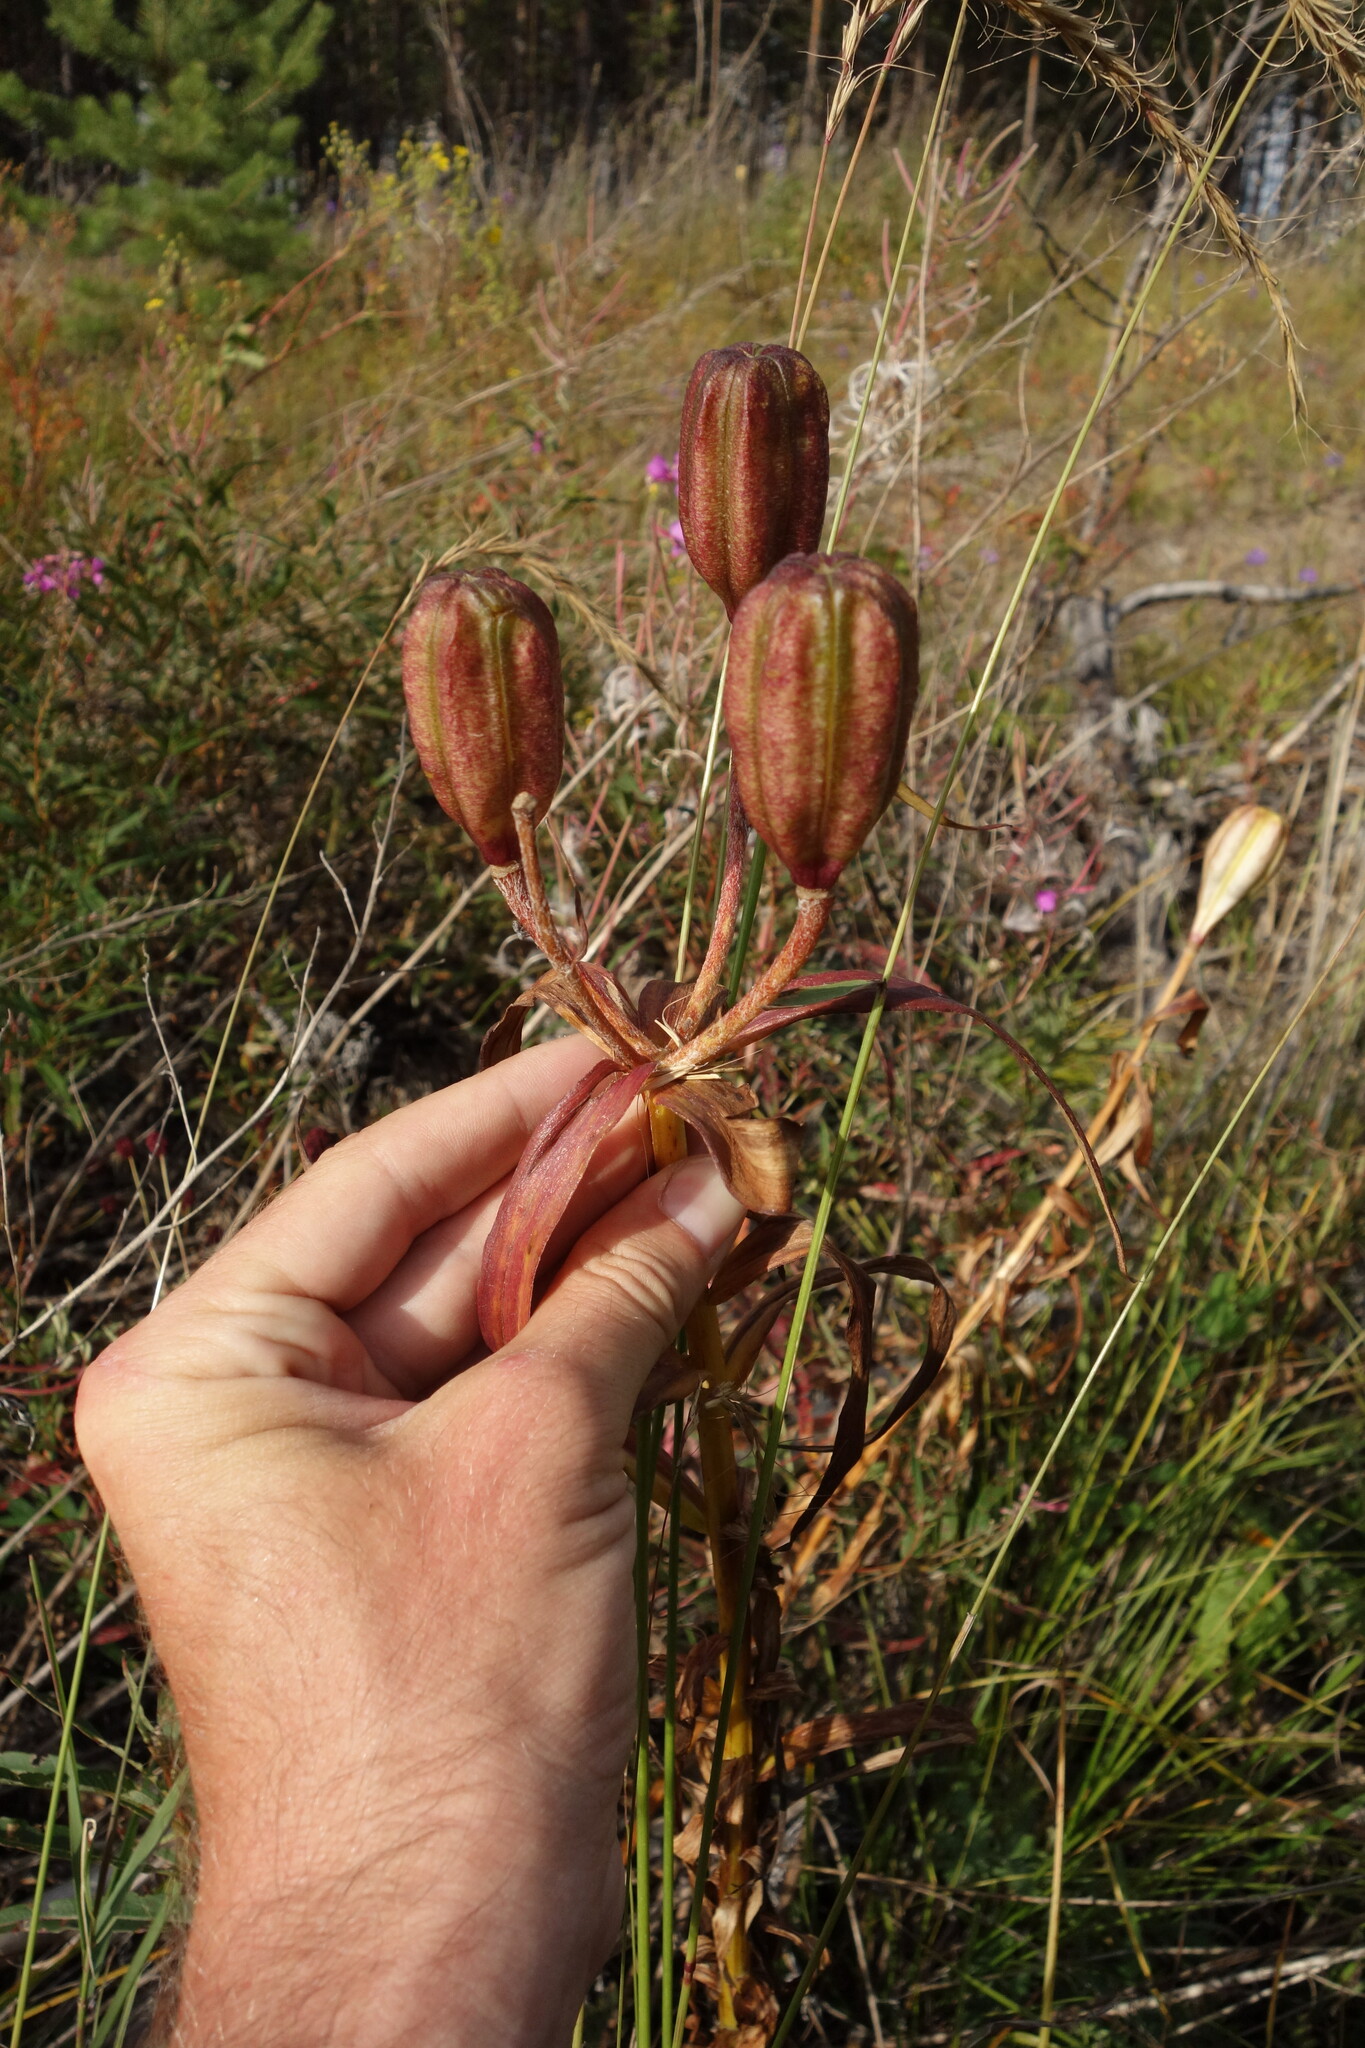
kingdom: Plantae
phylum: Tracheophyta
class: Liliopsida
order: Liliales
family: Liliaceae
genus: Lilium
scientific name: Lilium pensylvanicum
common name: Candlestick lily
